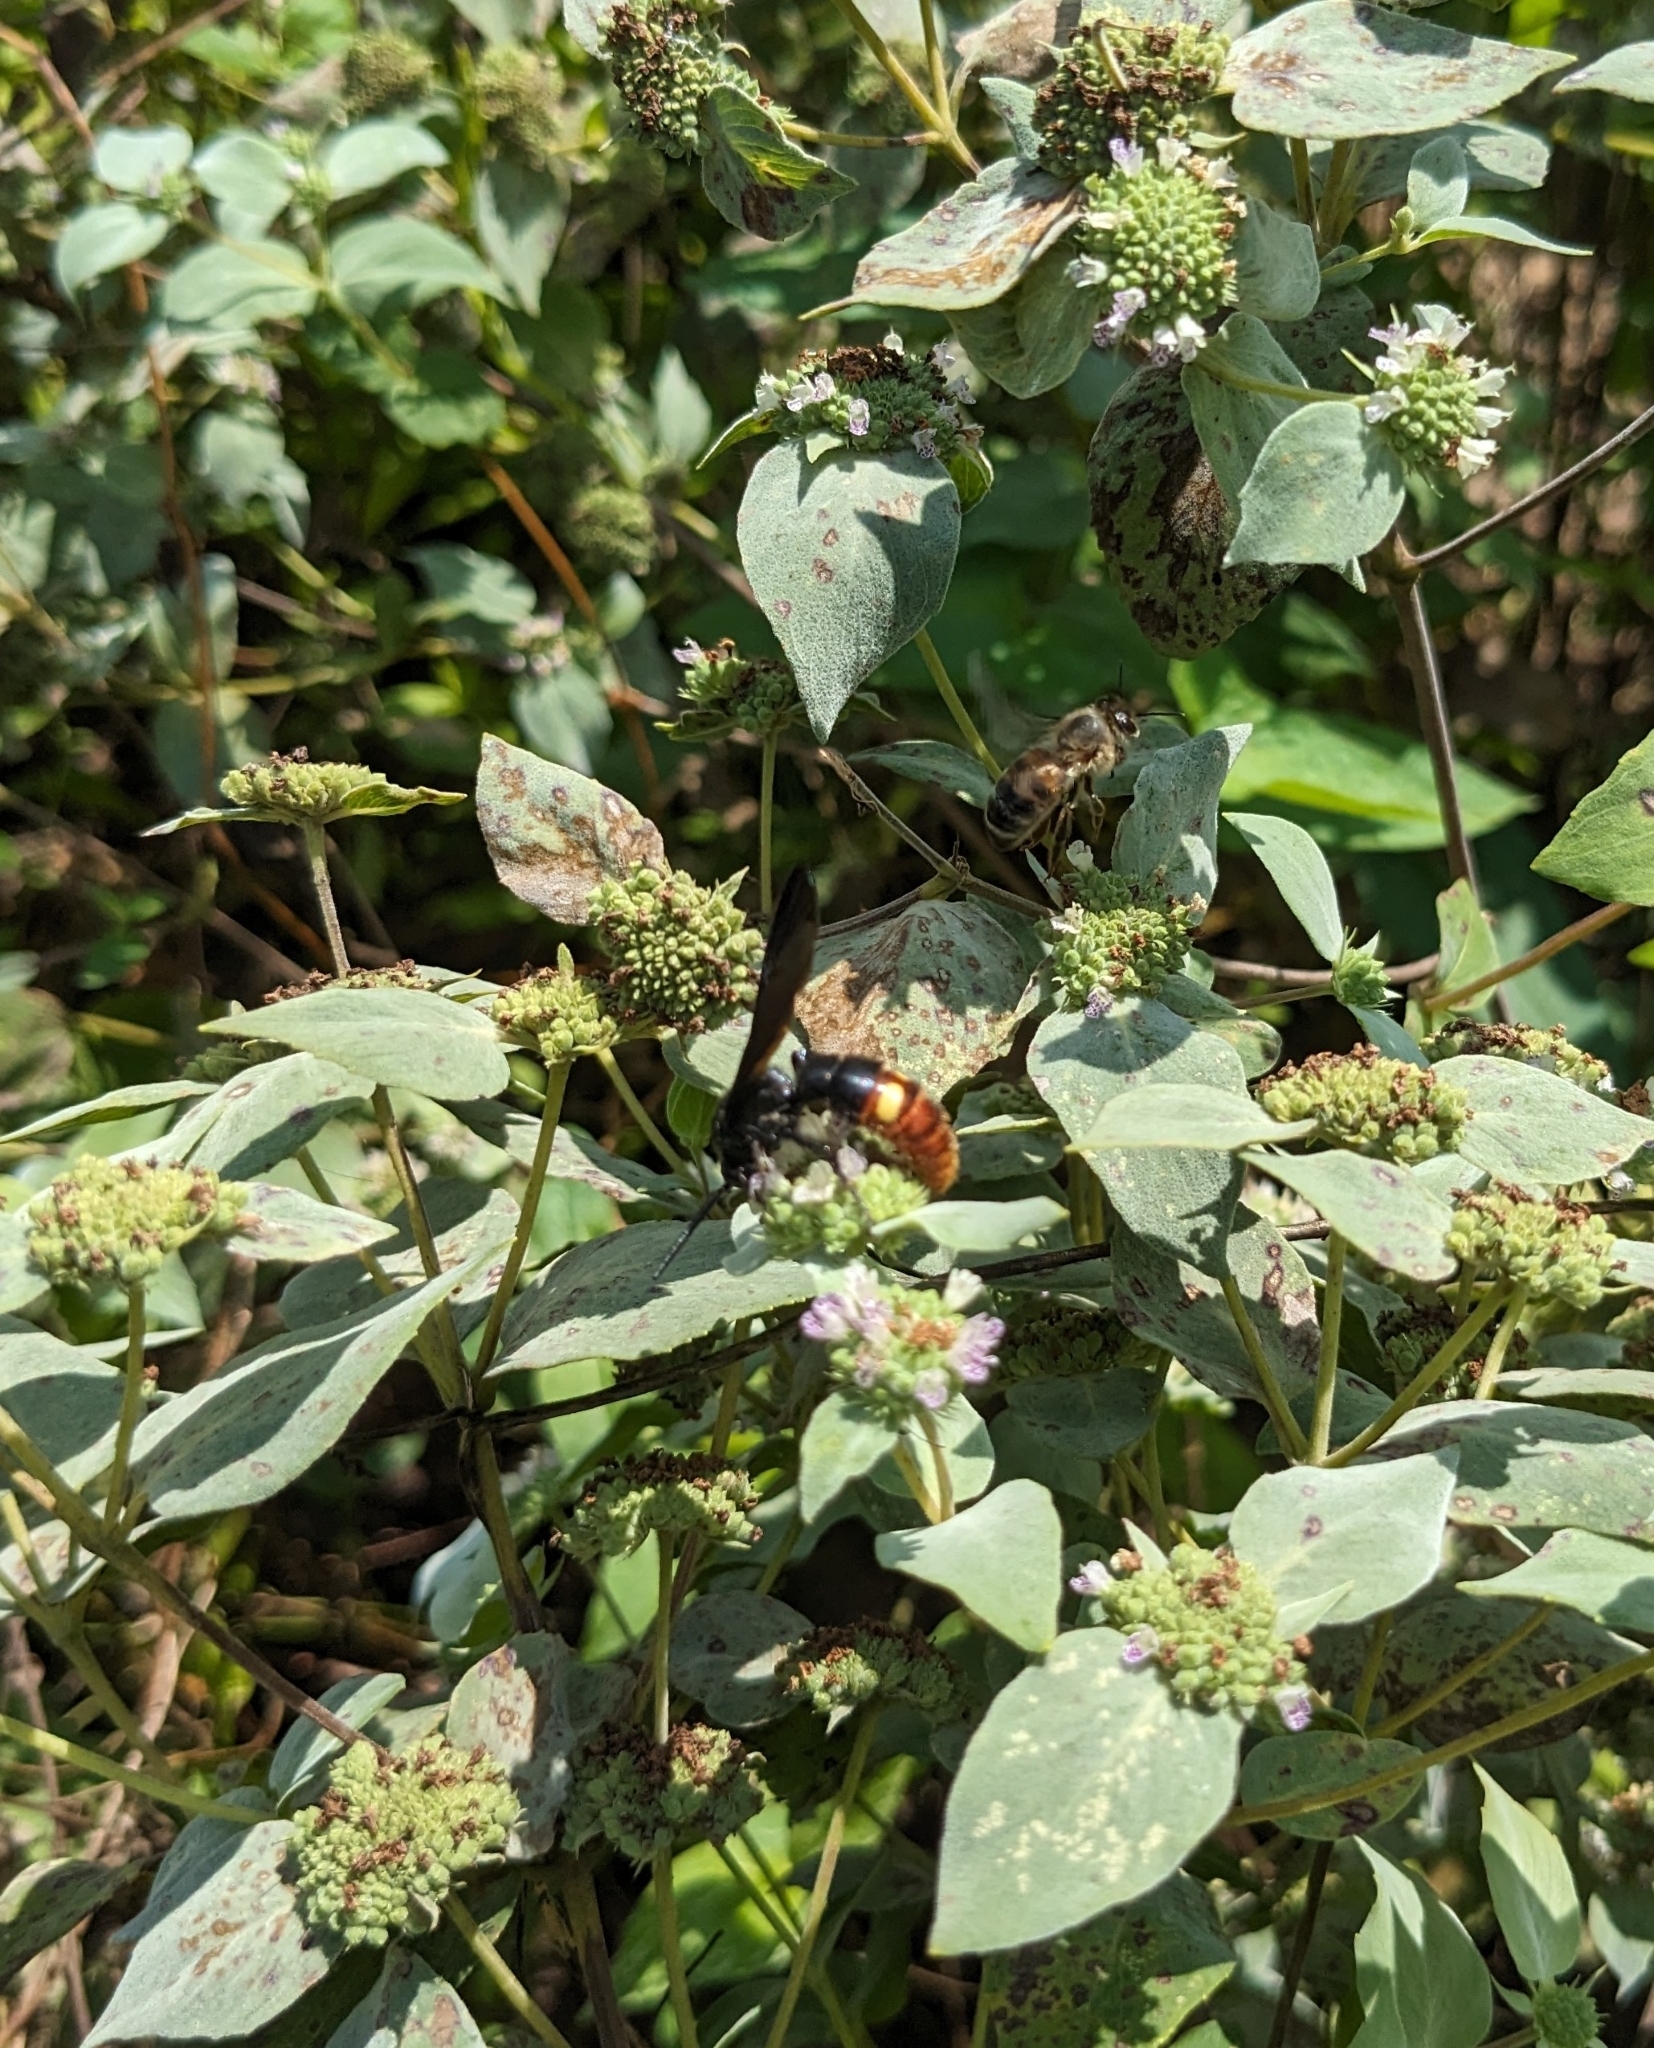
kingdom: Animalia
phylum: Arthropoda
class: Insecta
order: Hymenoptera
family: Scoliidae
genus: Scolia
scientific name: Scolia dubia
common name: Blue-winged scoliid wasp
